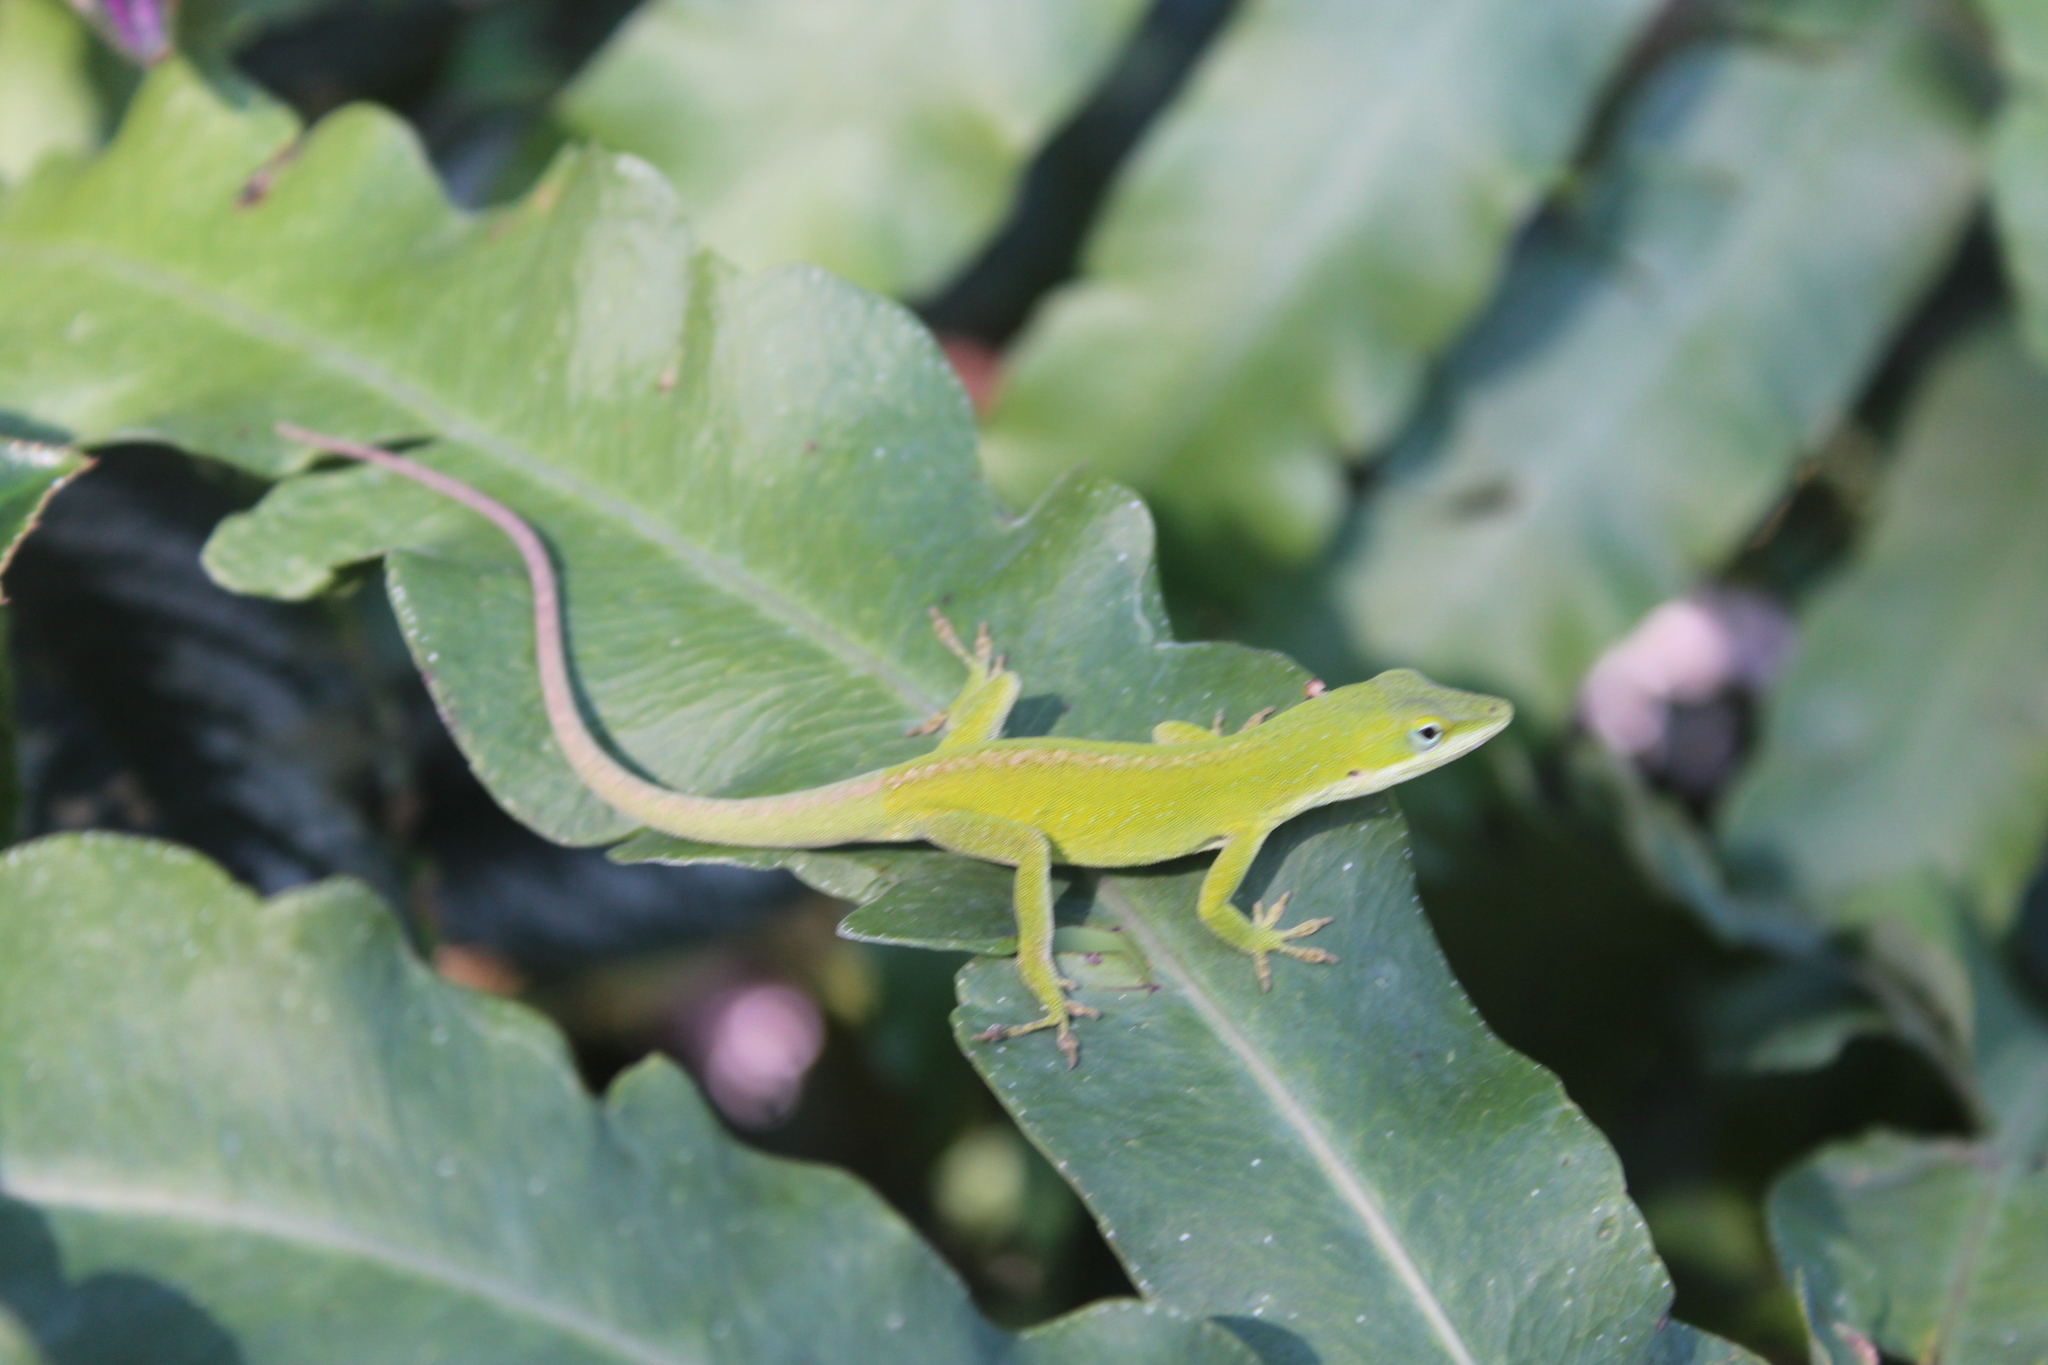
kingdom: Animalia
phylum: Chordata
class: Squamata
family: Dactyloidae
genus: Anolis
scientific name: Anolis carolinensis
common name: Green anole
